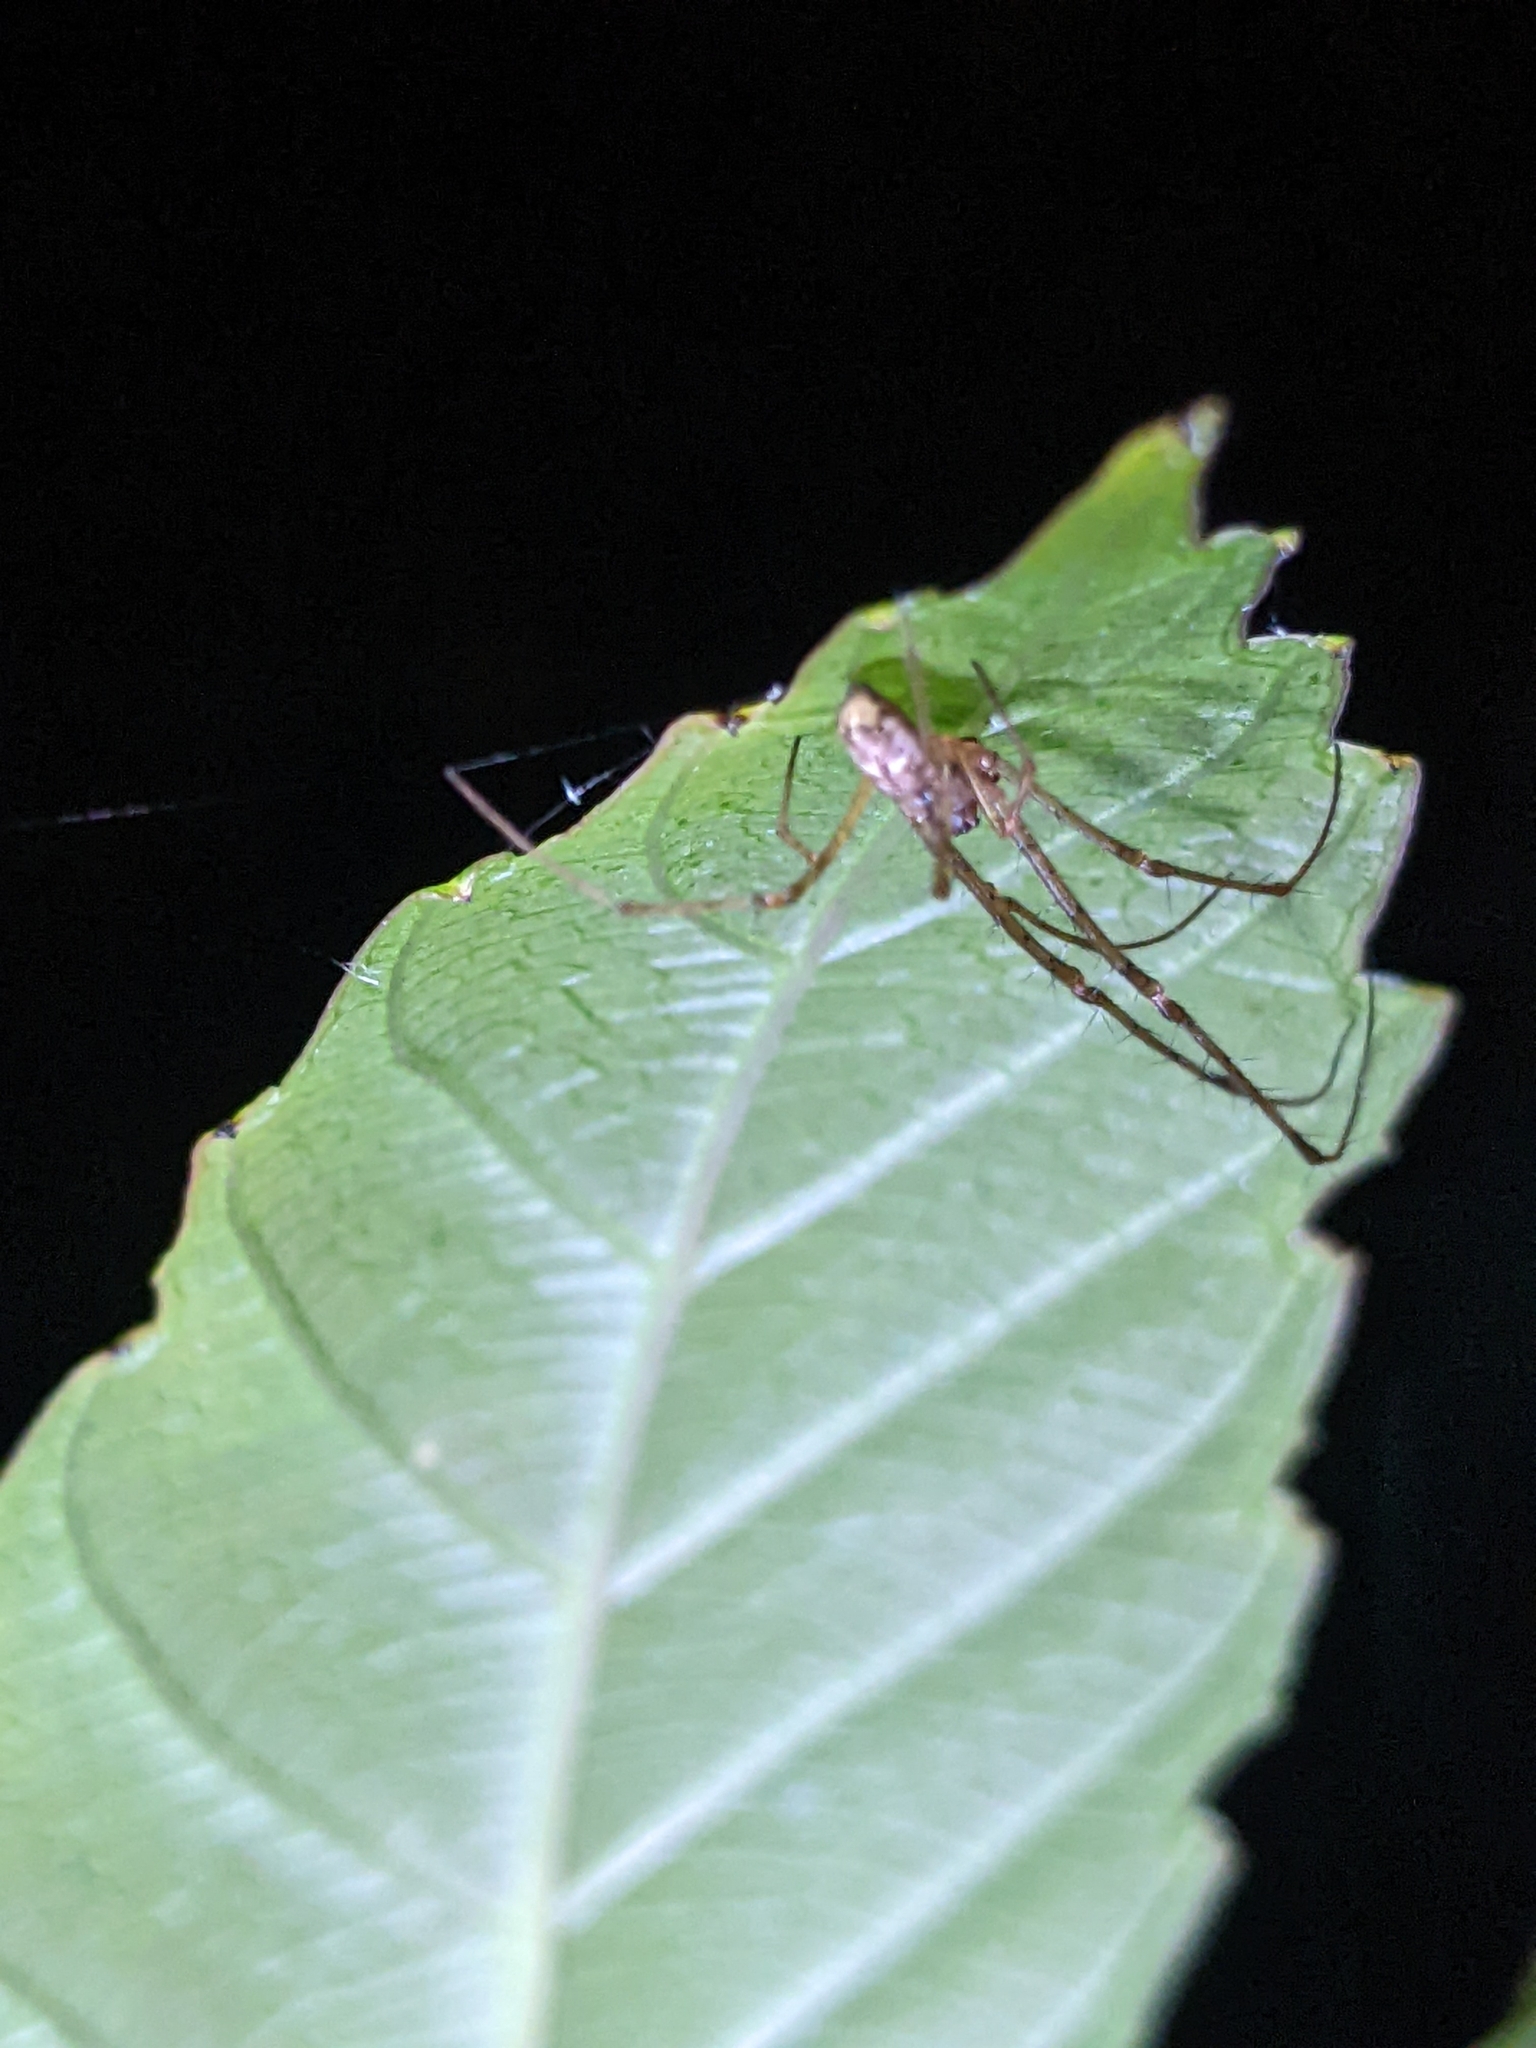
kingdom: Animalia
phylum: Arthropoda
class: Arachnida
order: Araneae
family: Tetragnathidae
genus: Tylorida
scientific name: Tylorida ventralis
